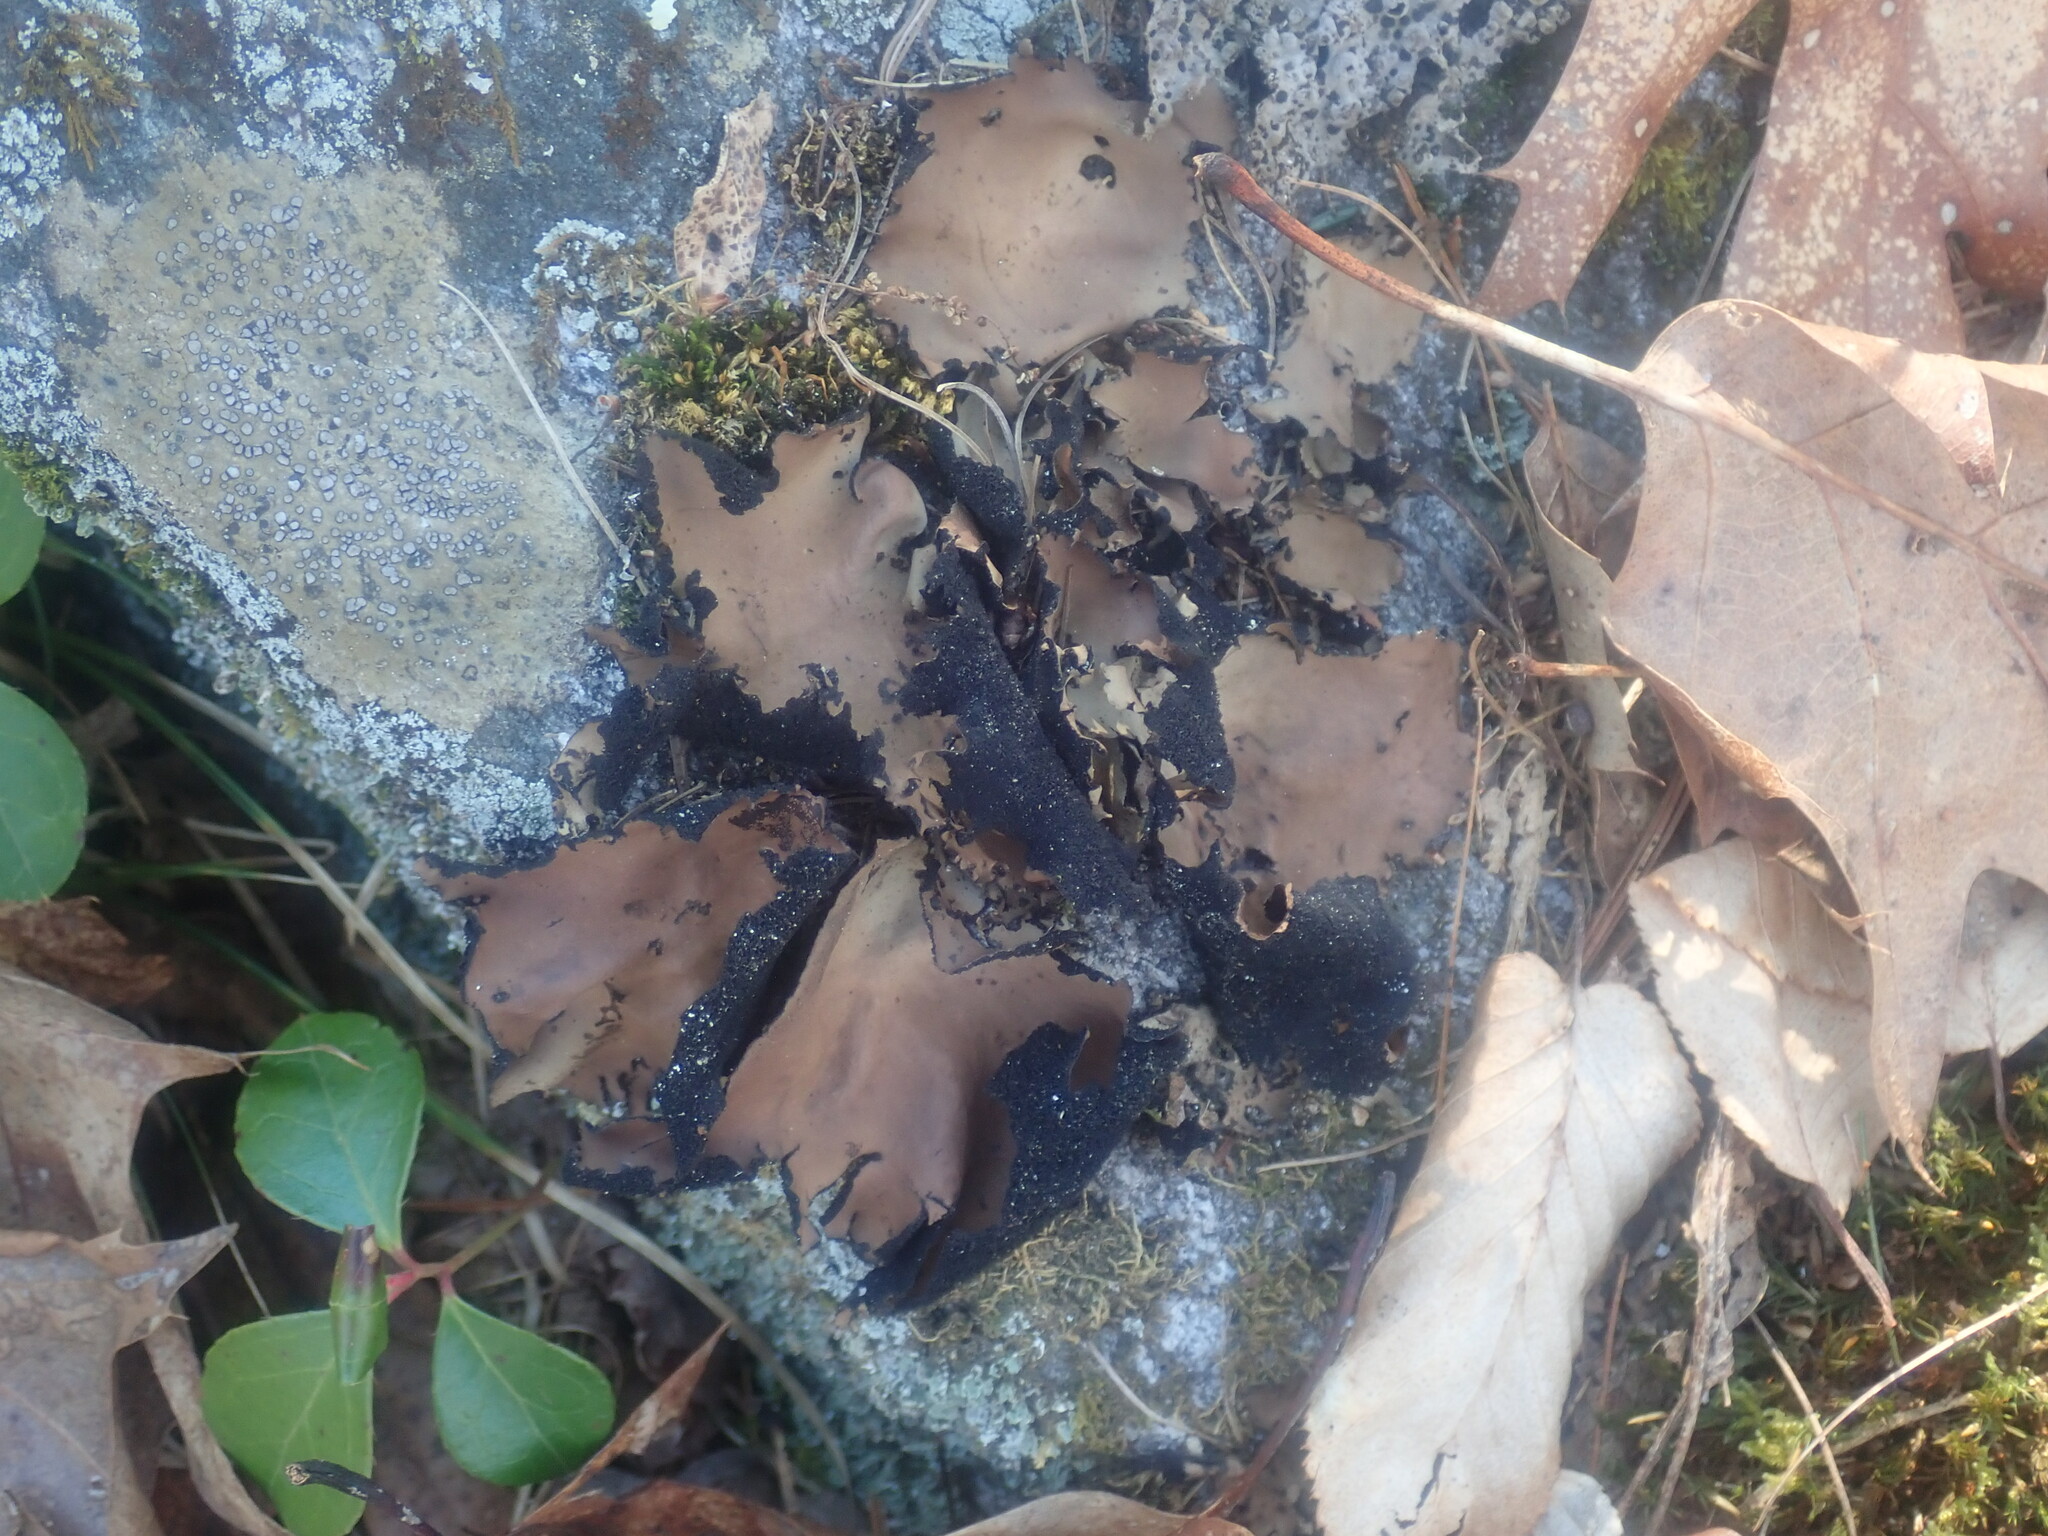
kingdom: Fungi
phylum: Ascomycota
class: Lecanoromycetes
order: Umbilicariales
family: Umbilicariaceae
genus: Umbilicaria
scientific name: Umbilicaria mammulata
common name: Smooth rock tripe
